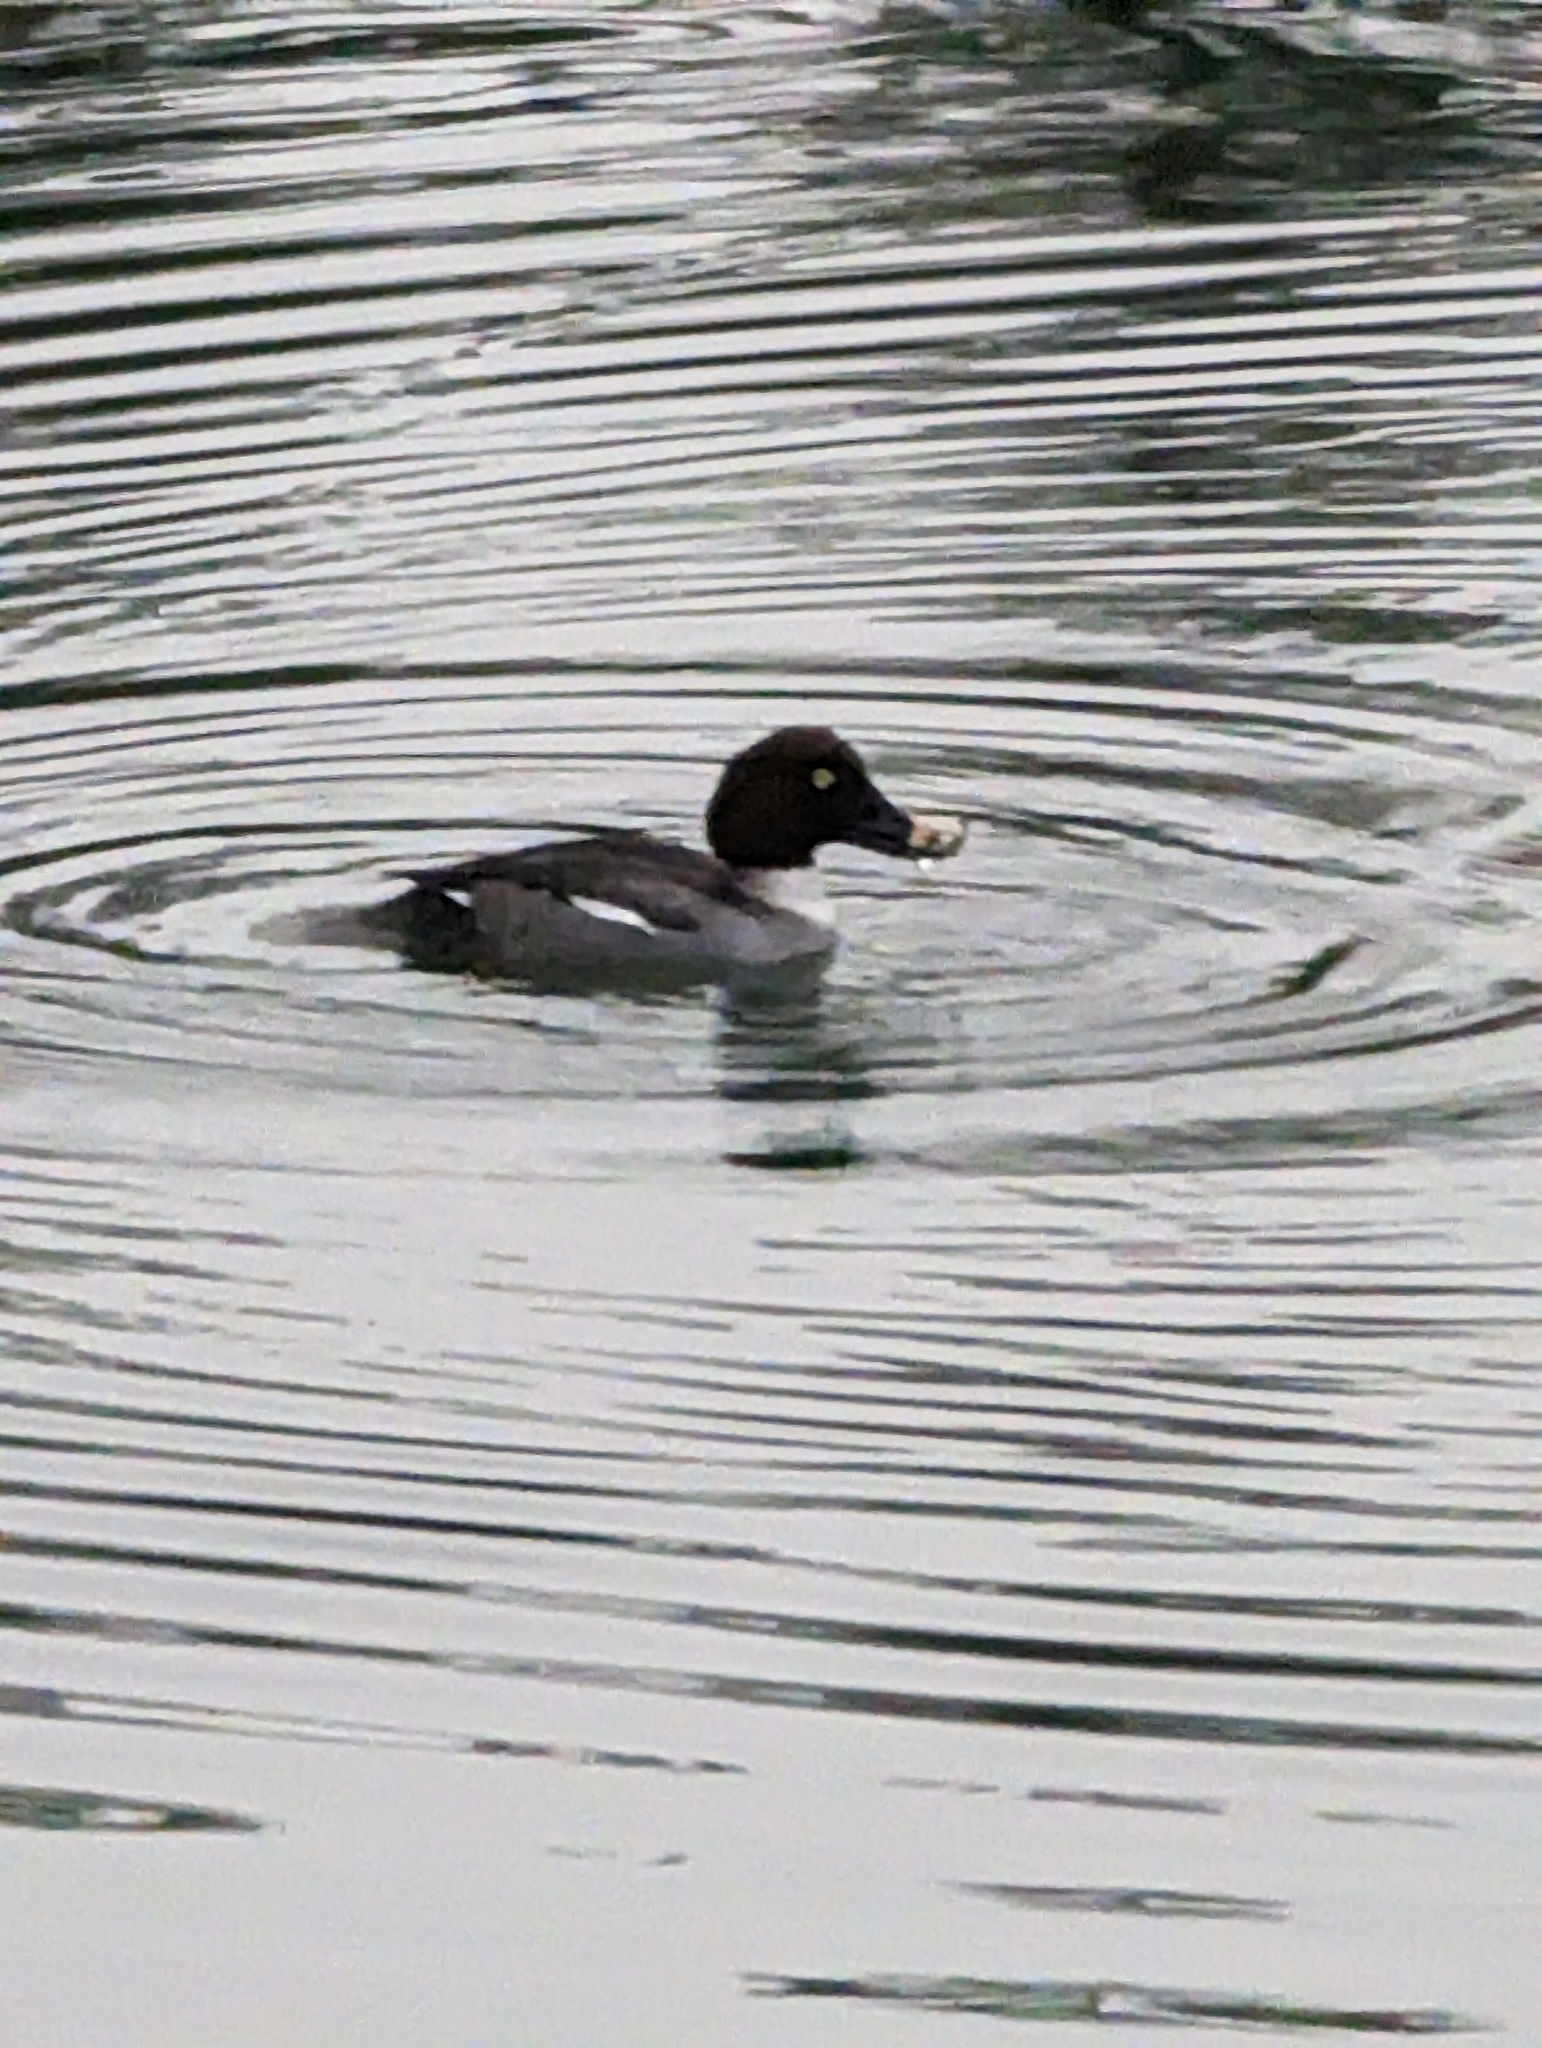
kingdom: Animalia
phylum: Chordata
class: Aves
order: Anseriformes
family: Anatidae
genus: Bucephala
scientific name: Bucephala clangula
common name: Common goldeneye
